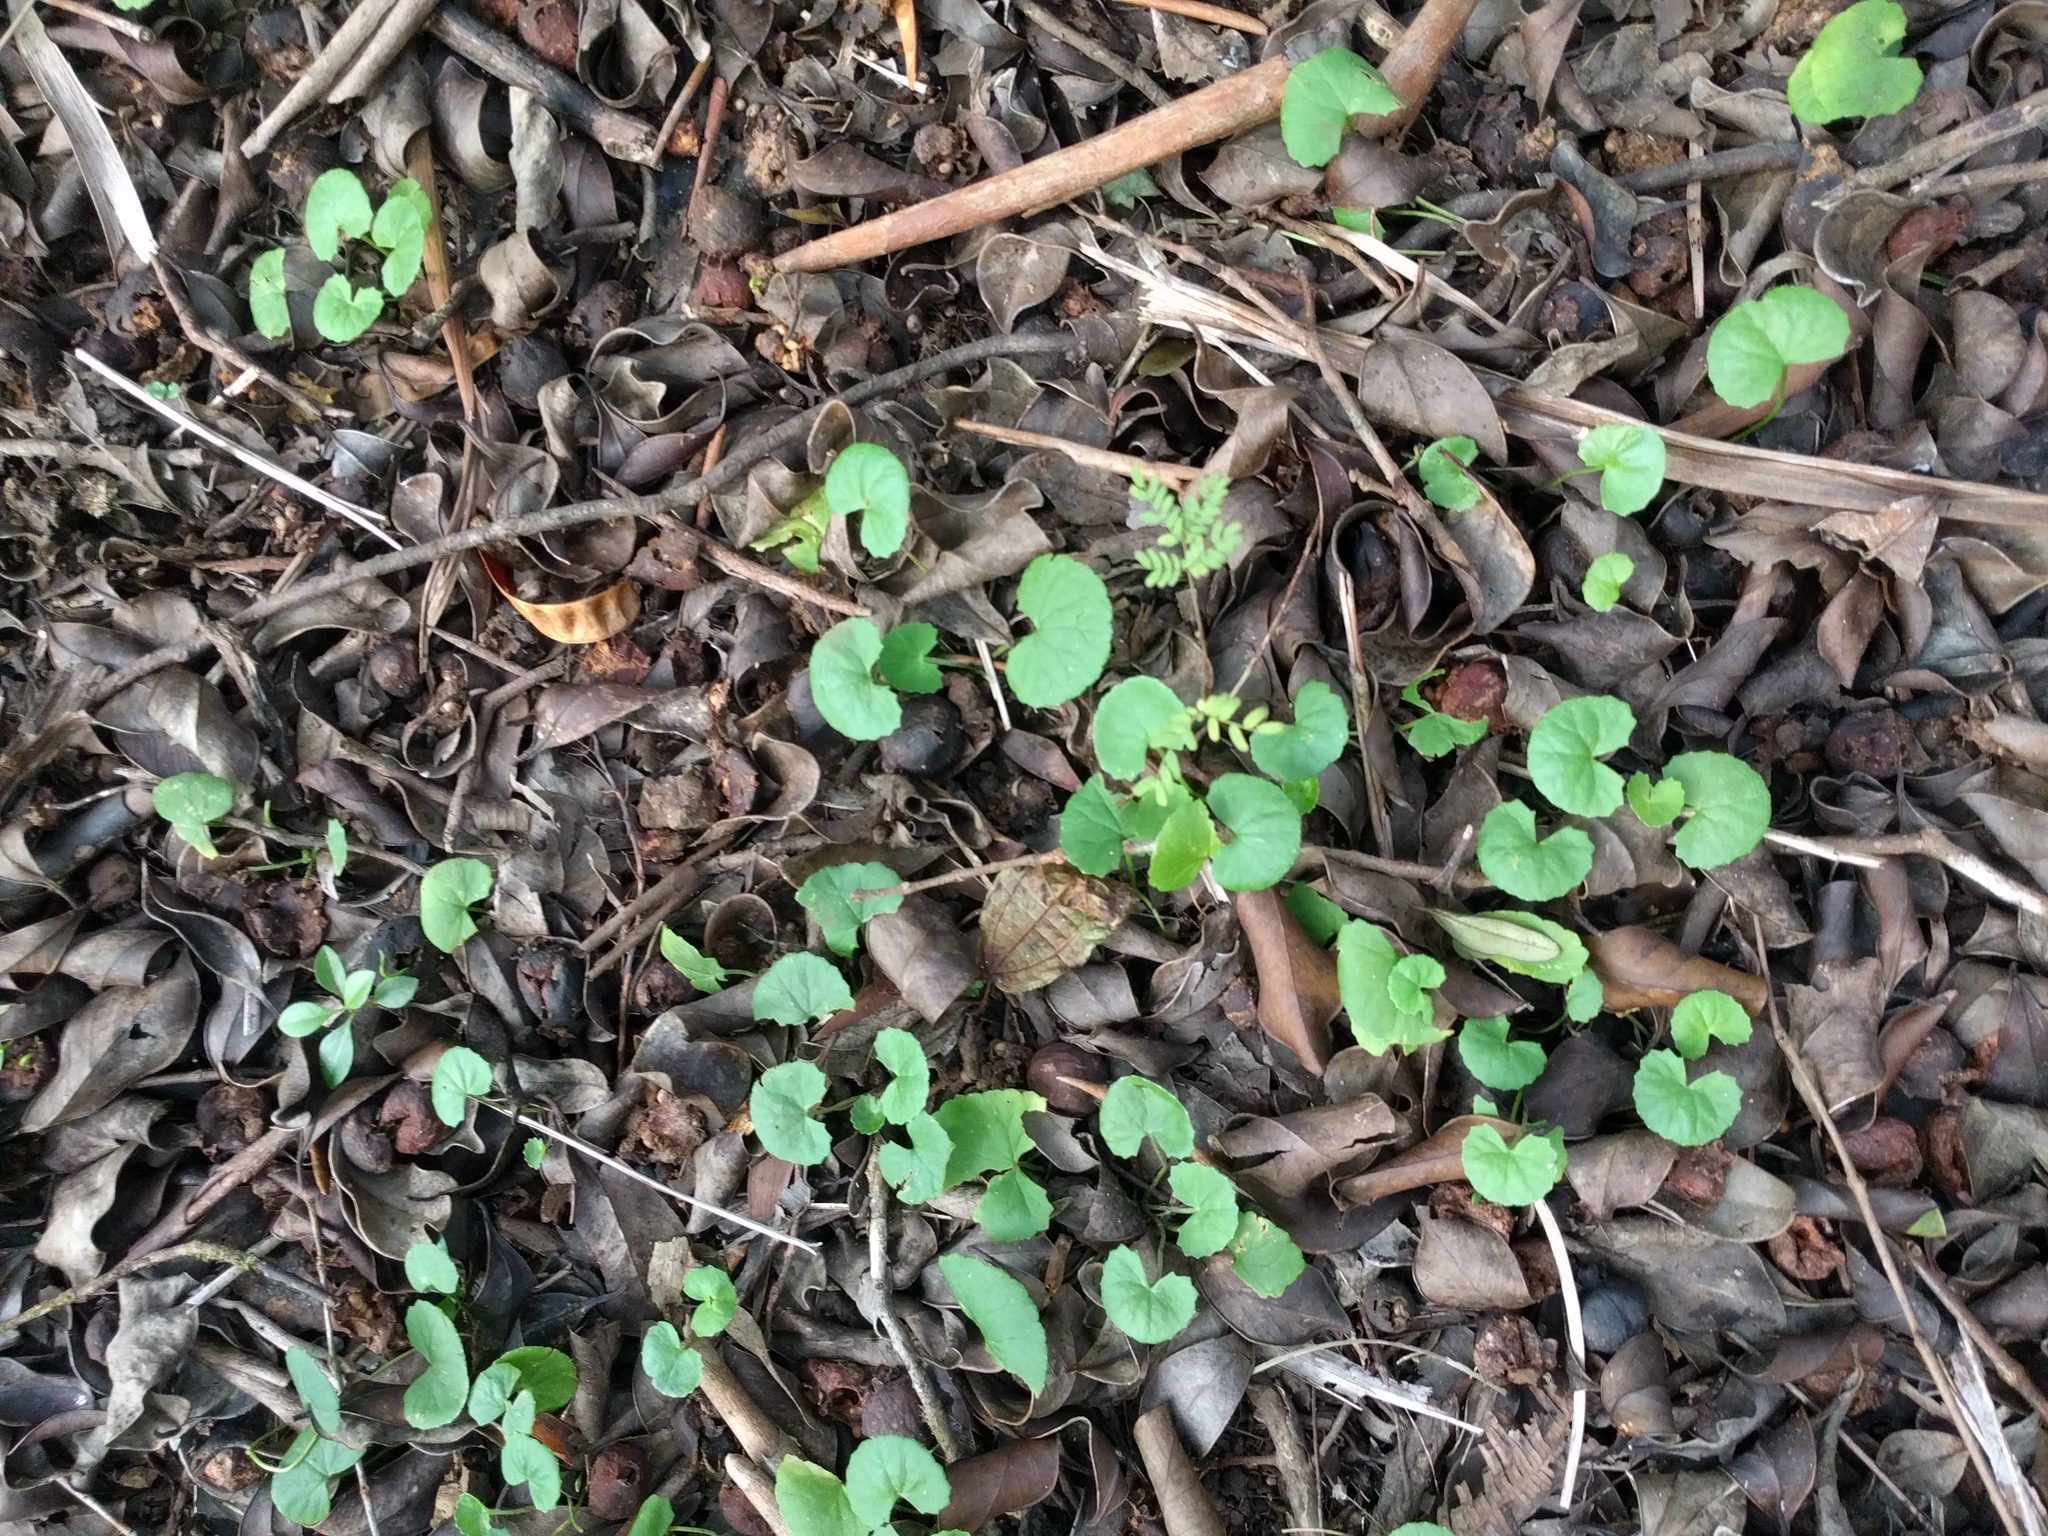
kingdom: Plantae
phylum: Tracheophyta
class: Magnoliopsida
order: Apiales
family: Apiaceae
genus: Centella
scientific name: Centella asiatica
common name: Spadeleaf
